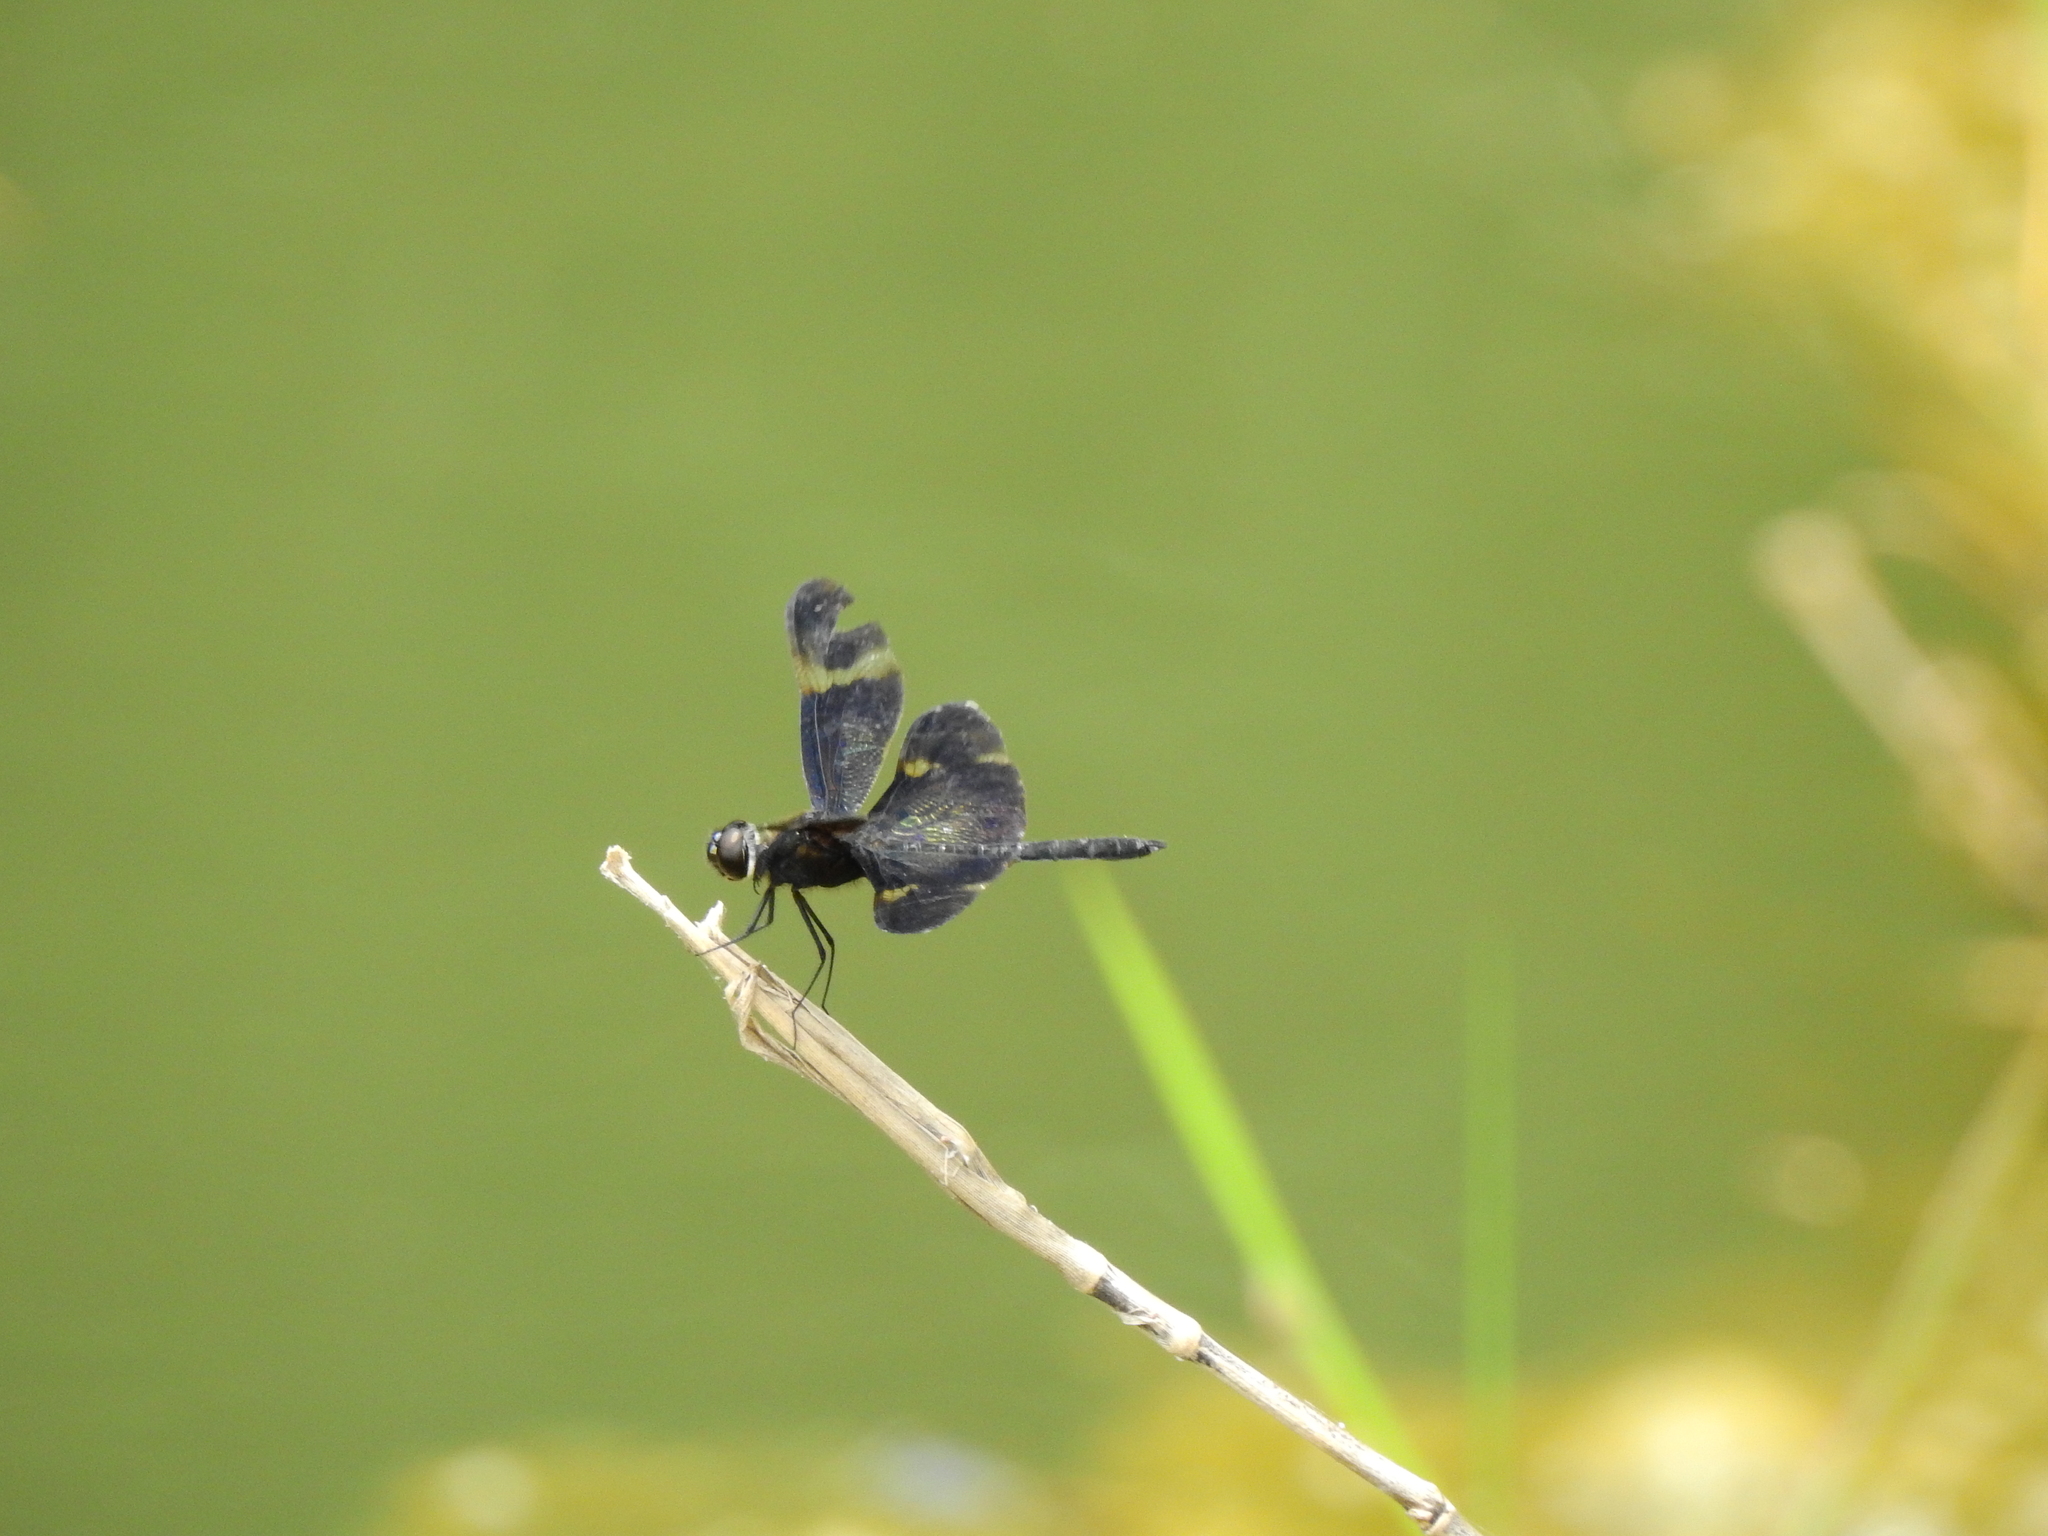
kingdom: Animalia
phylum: Arthropoda
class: Insecta
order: Odonata
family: Libellulidae
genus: Rhyothemis
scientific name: Rhyothemis regia
